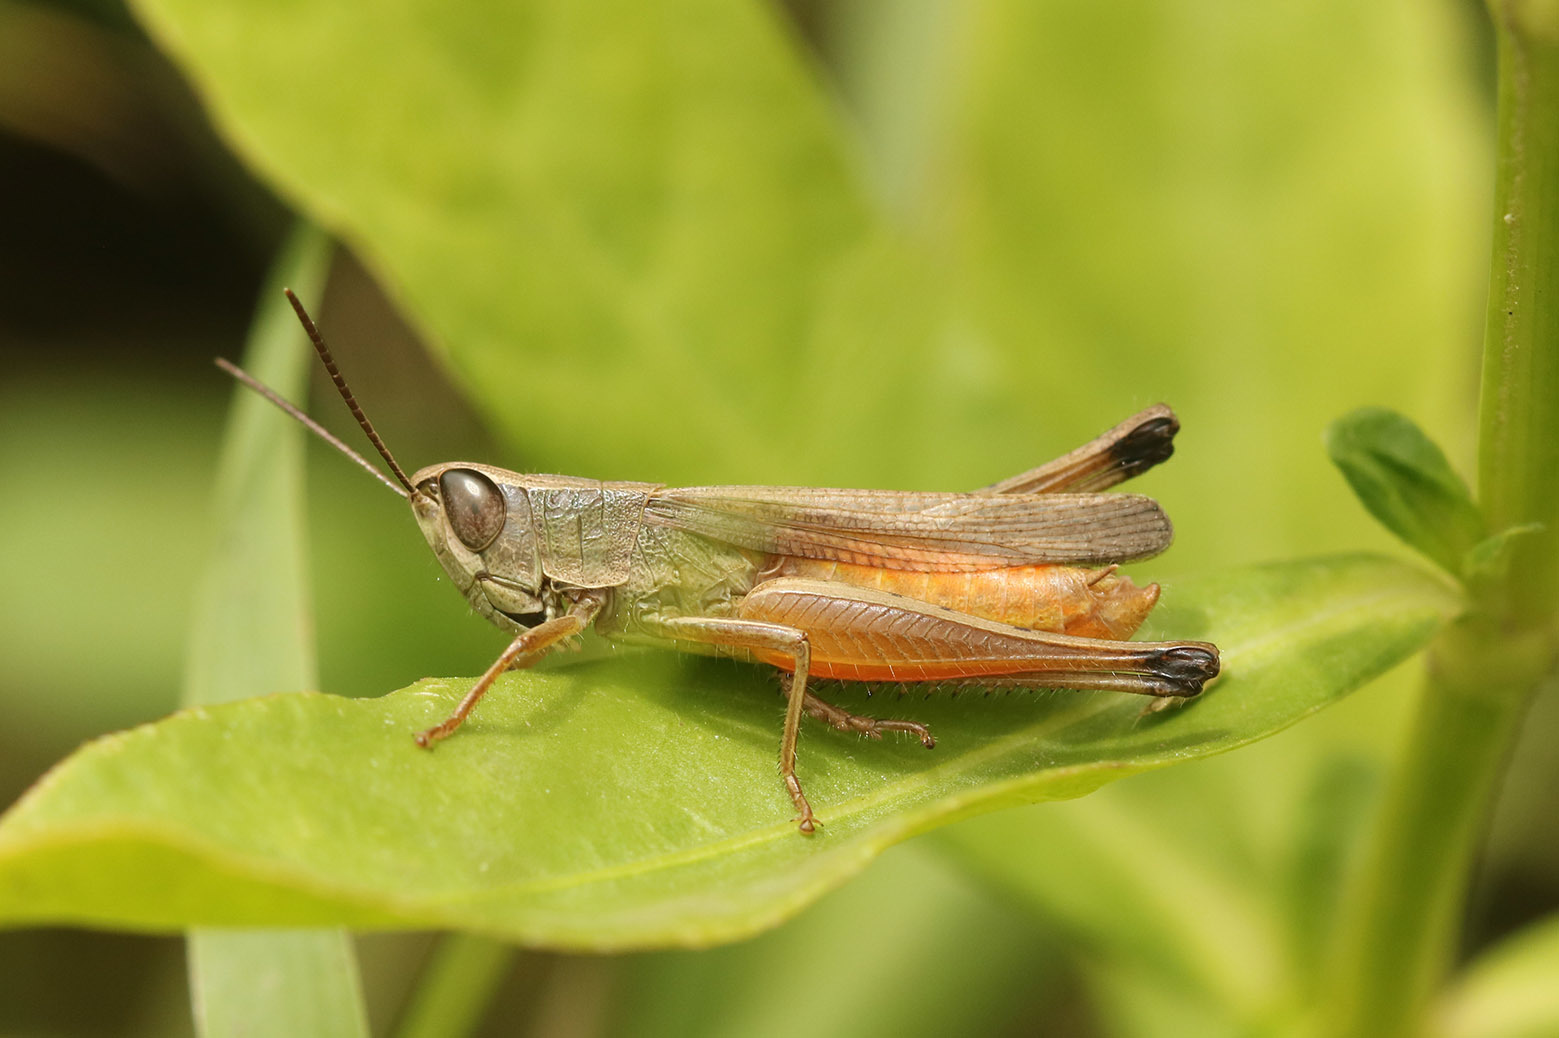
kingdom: Animalia
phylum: Arthropoda
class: Insecta
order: Orthoptera
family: Acrididae
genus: Amblytropidia
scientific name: Amblytropidia australis
